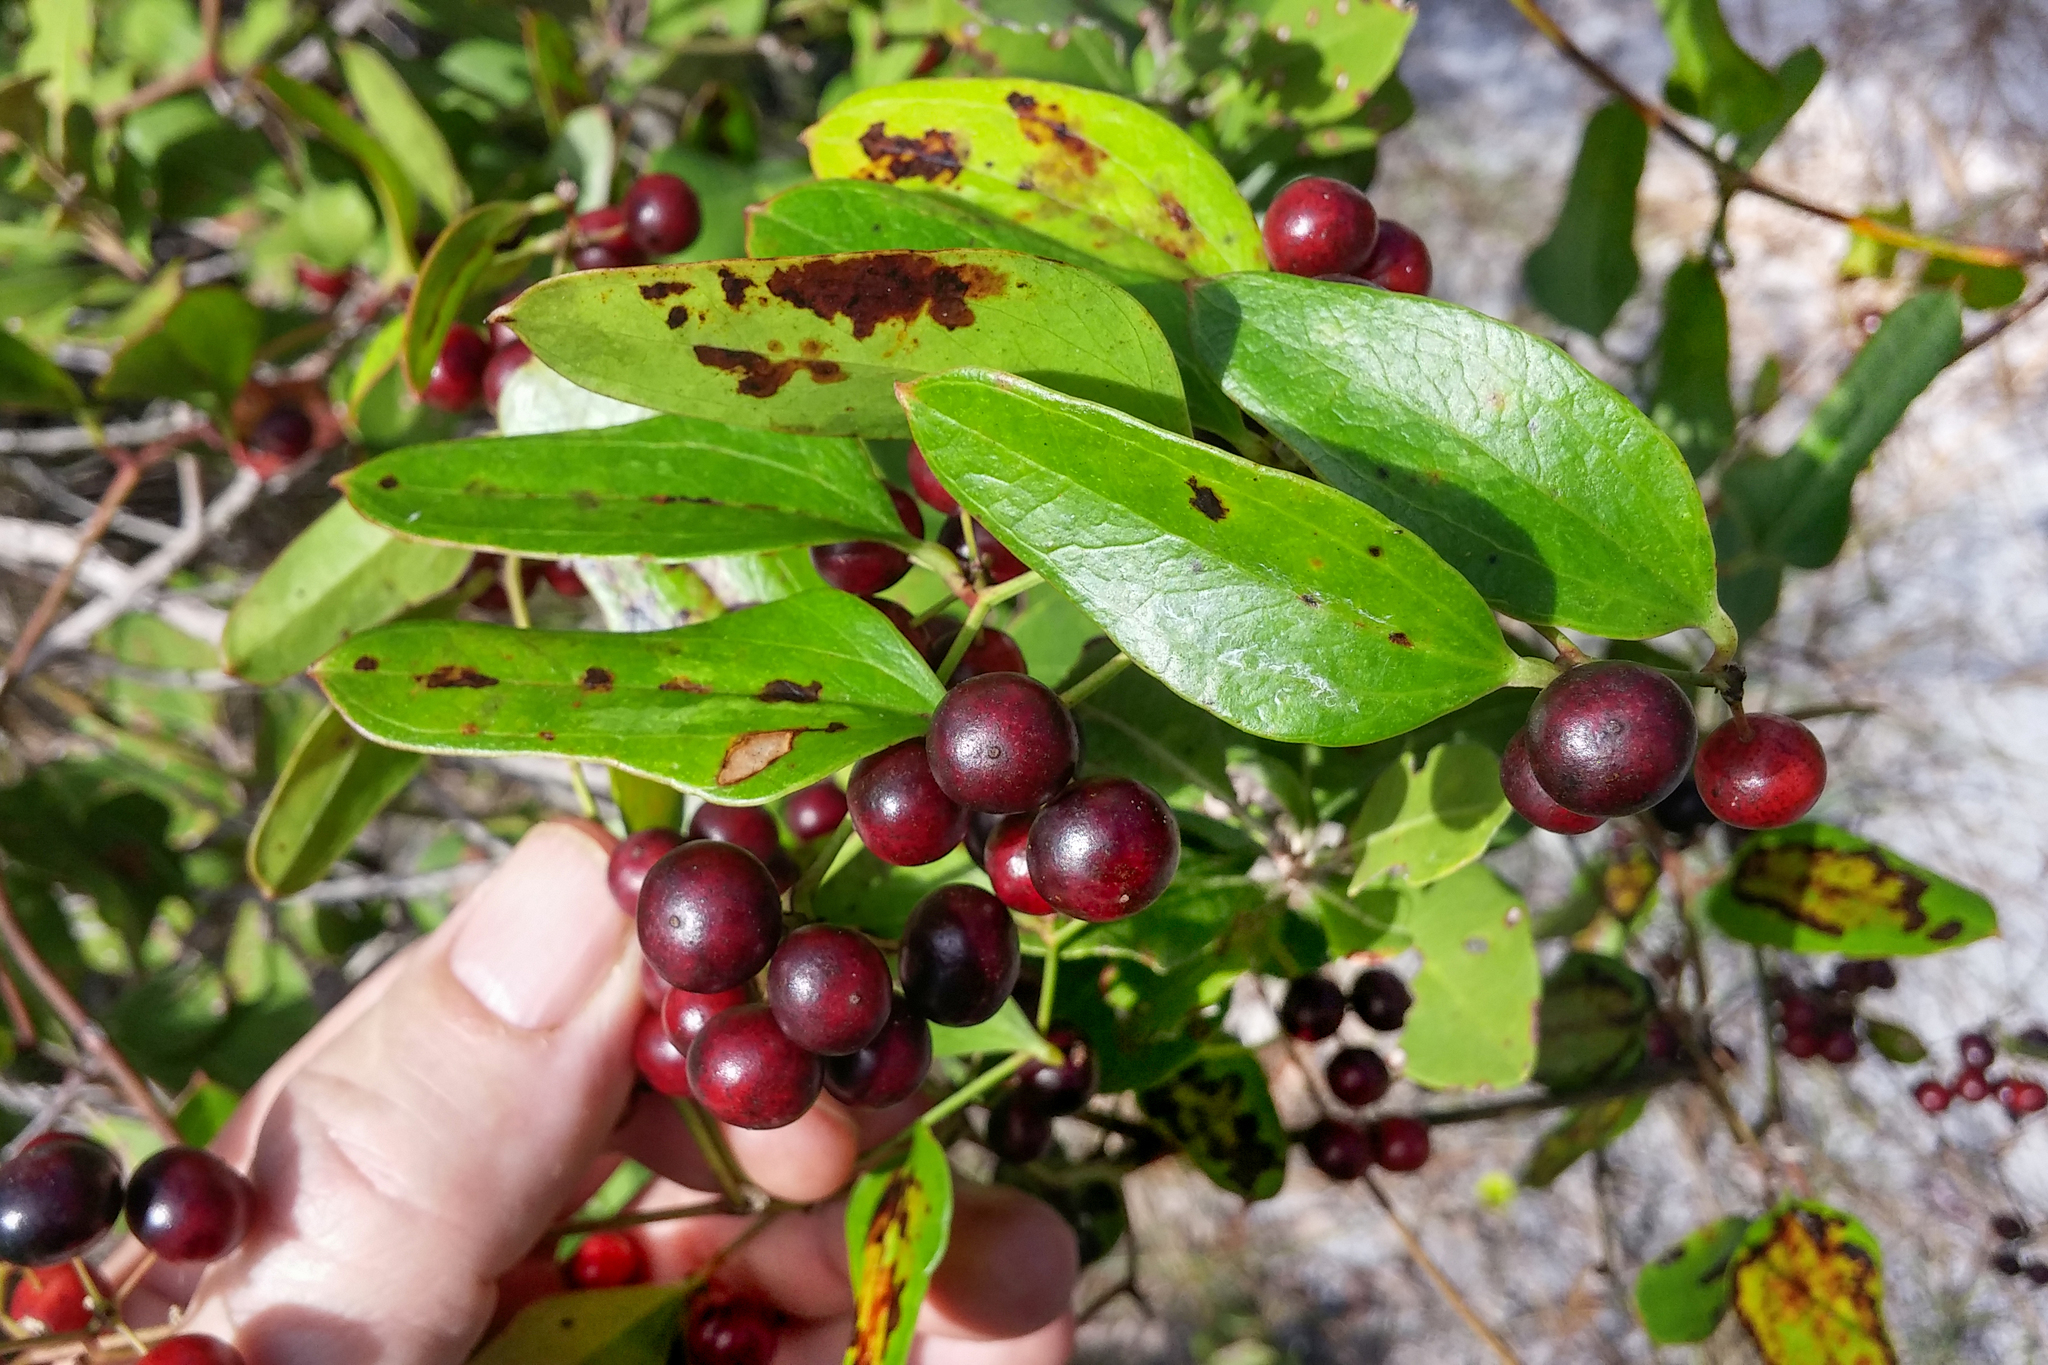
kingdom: Plantae
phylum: Tracheophyta
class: Liliopsida
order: Liliales
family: Smilacaceae
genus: Smilax
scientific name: Smilax auriculata
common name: Wild bamboo
